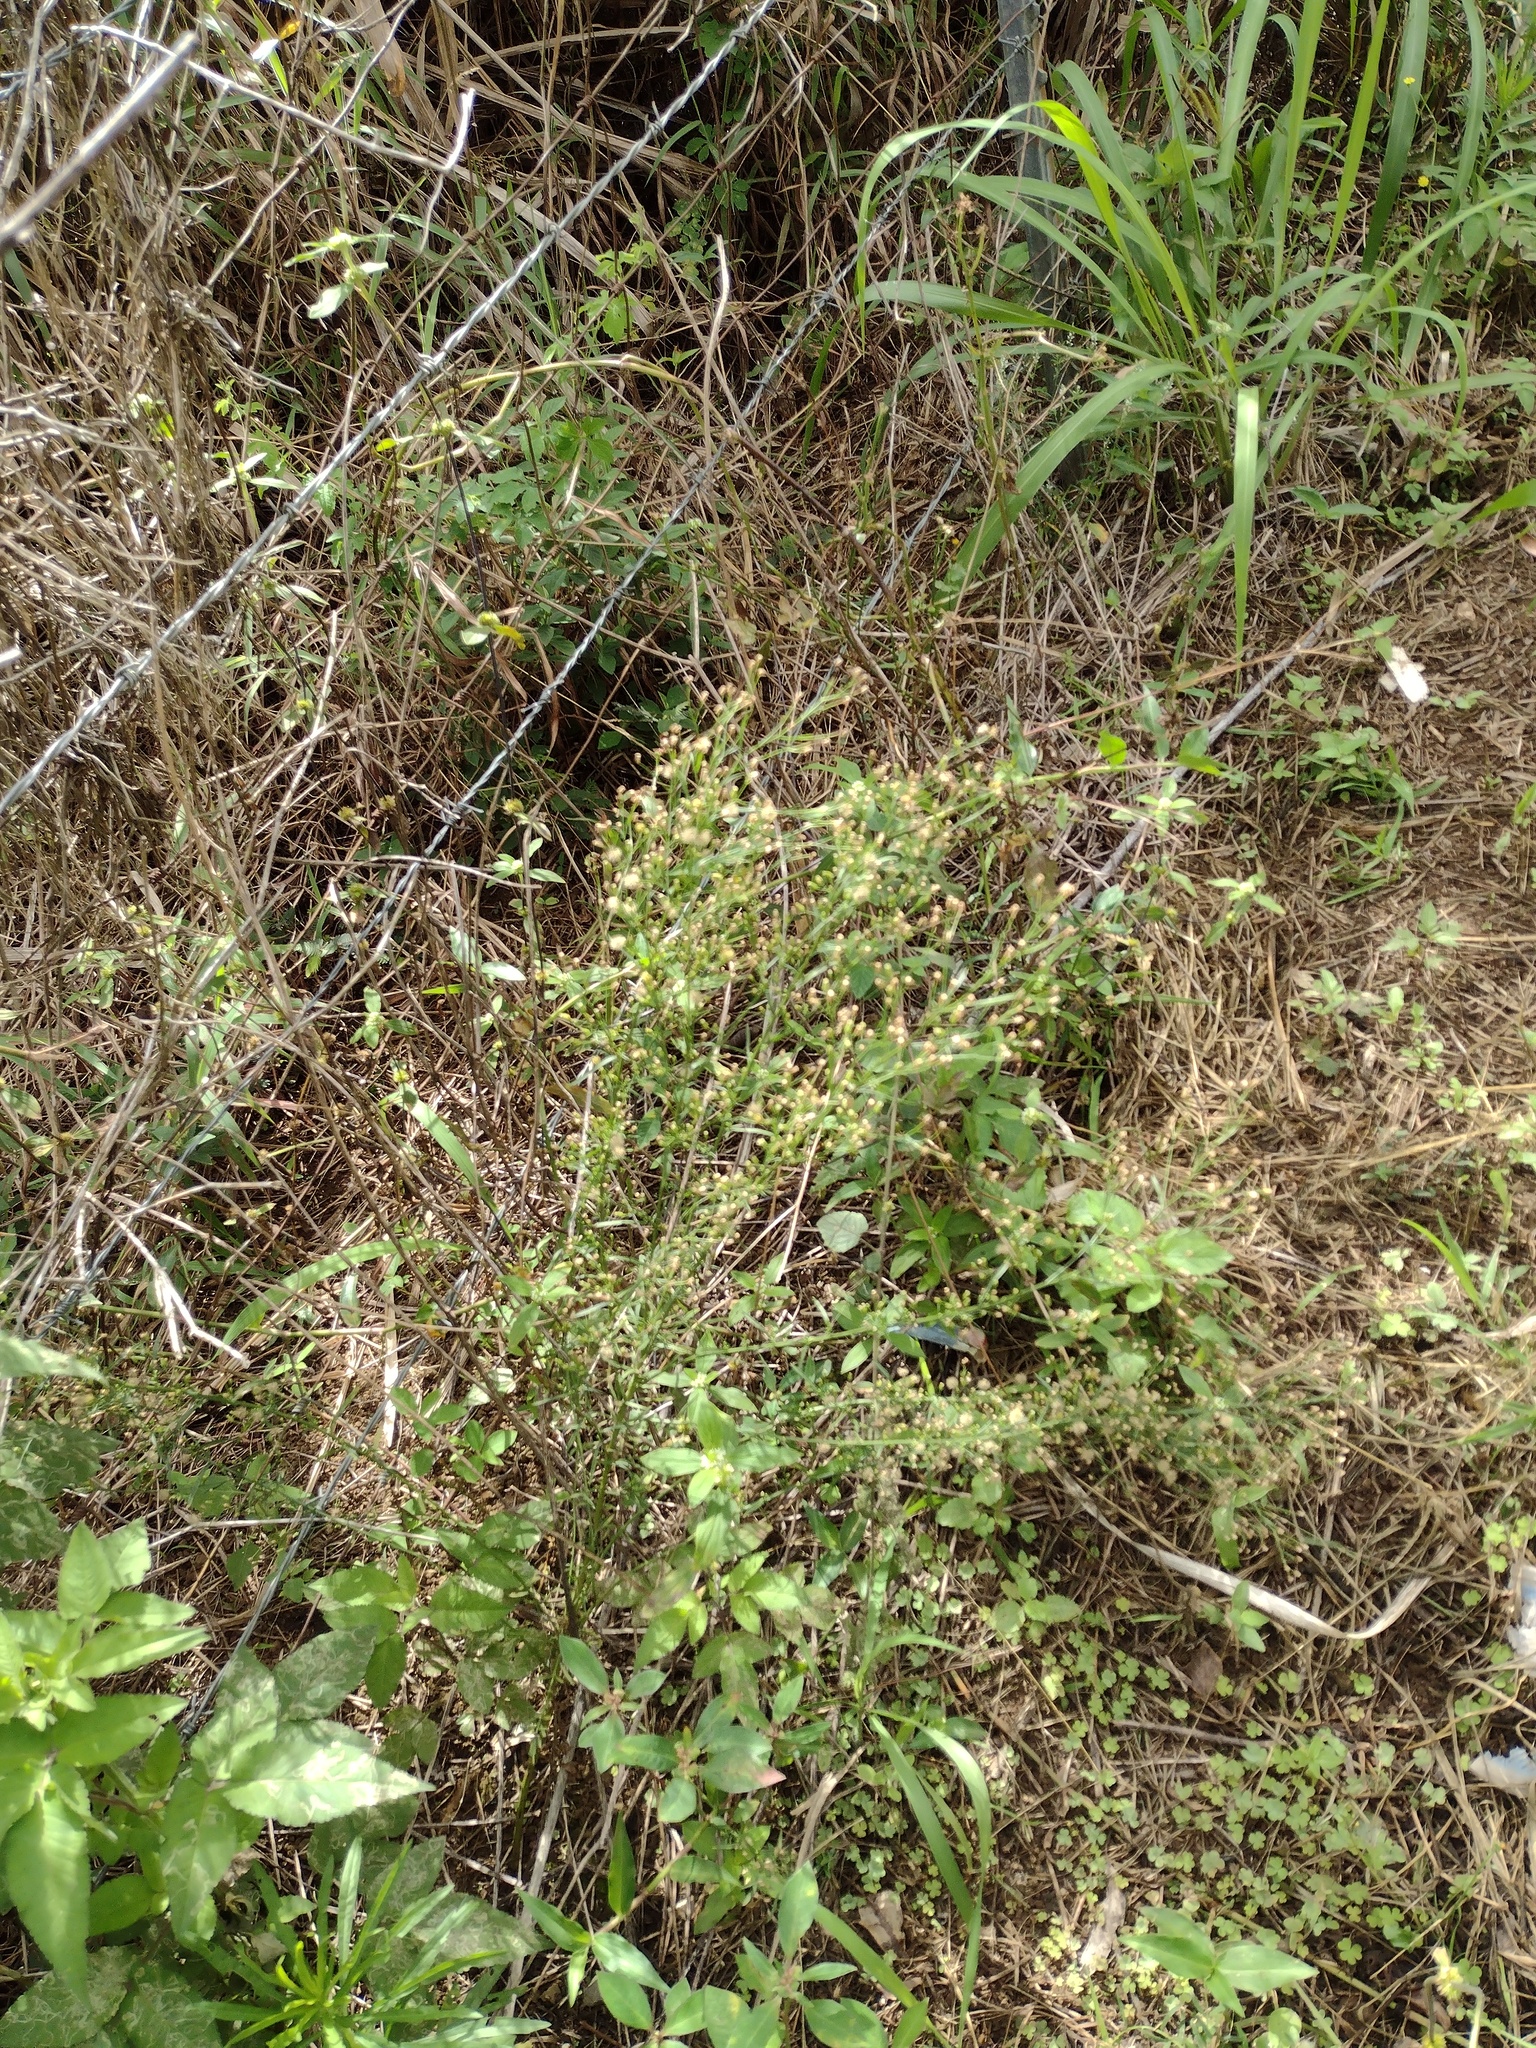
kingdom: Plantae
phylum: Tracheophyta
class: Magnoliopsida
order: Asterales
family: Asteraceae
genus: Erigeron
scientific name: Erigeron canadensis
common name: Canadian fleabane
